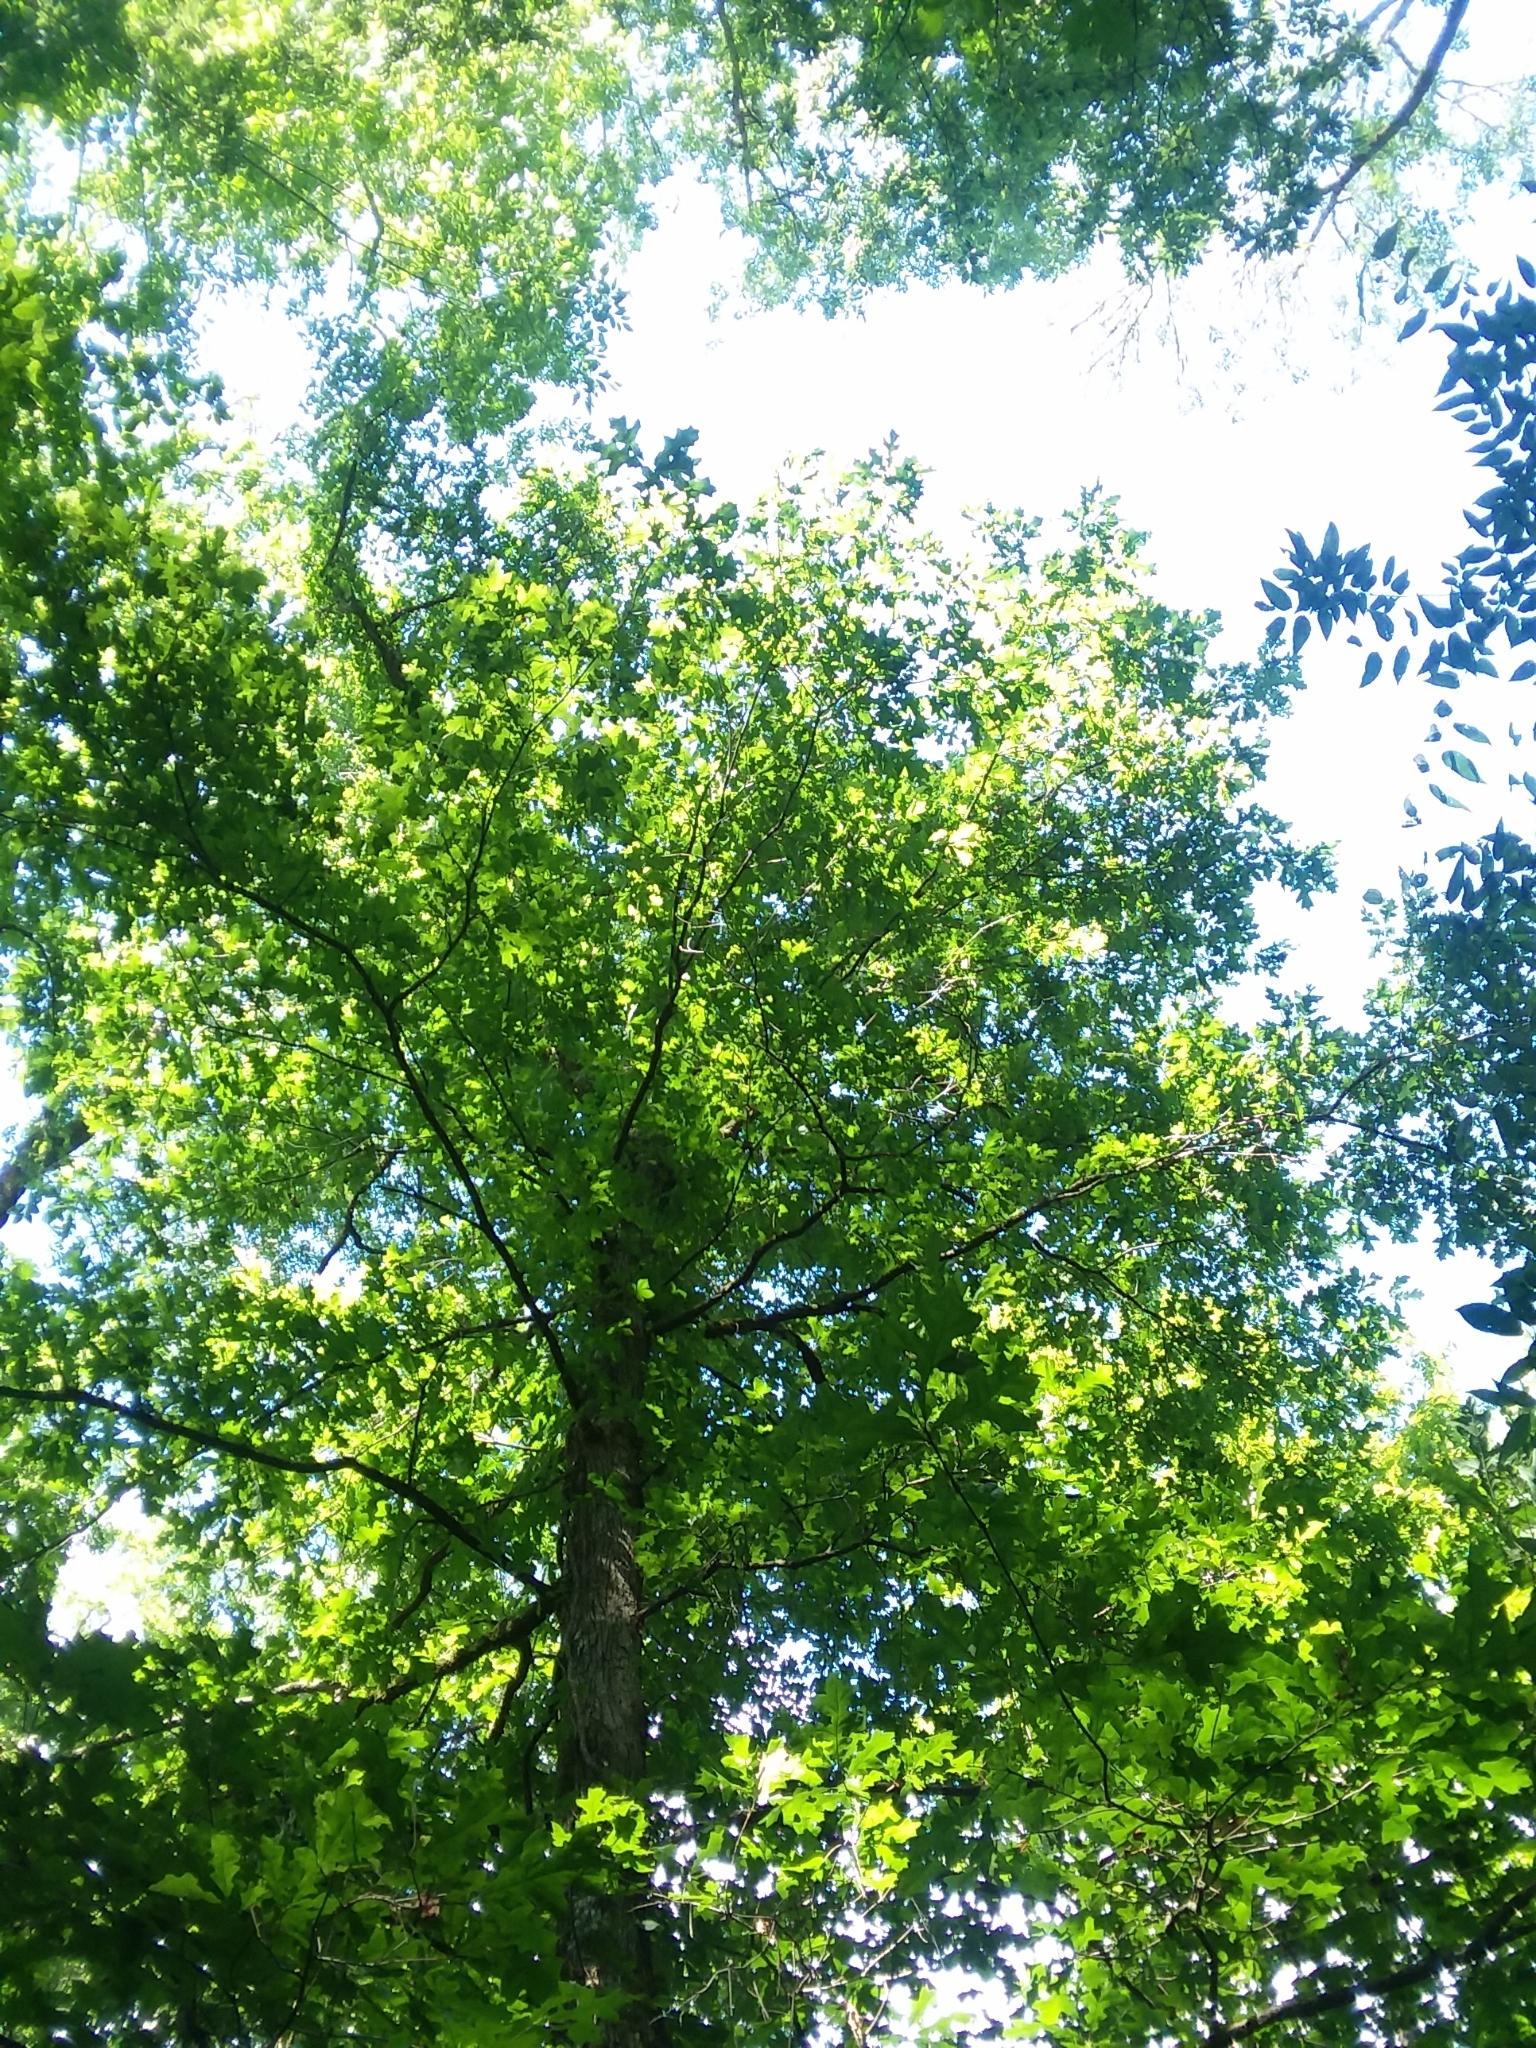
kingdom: Plantae
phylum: Tracheophyta
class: Magnoliopsida
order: Fagales
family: Fagaceae
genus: Quercus
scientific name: Quercus lyrata
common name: Overcup oak
